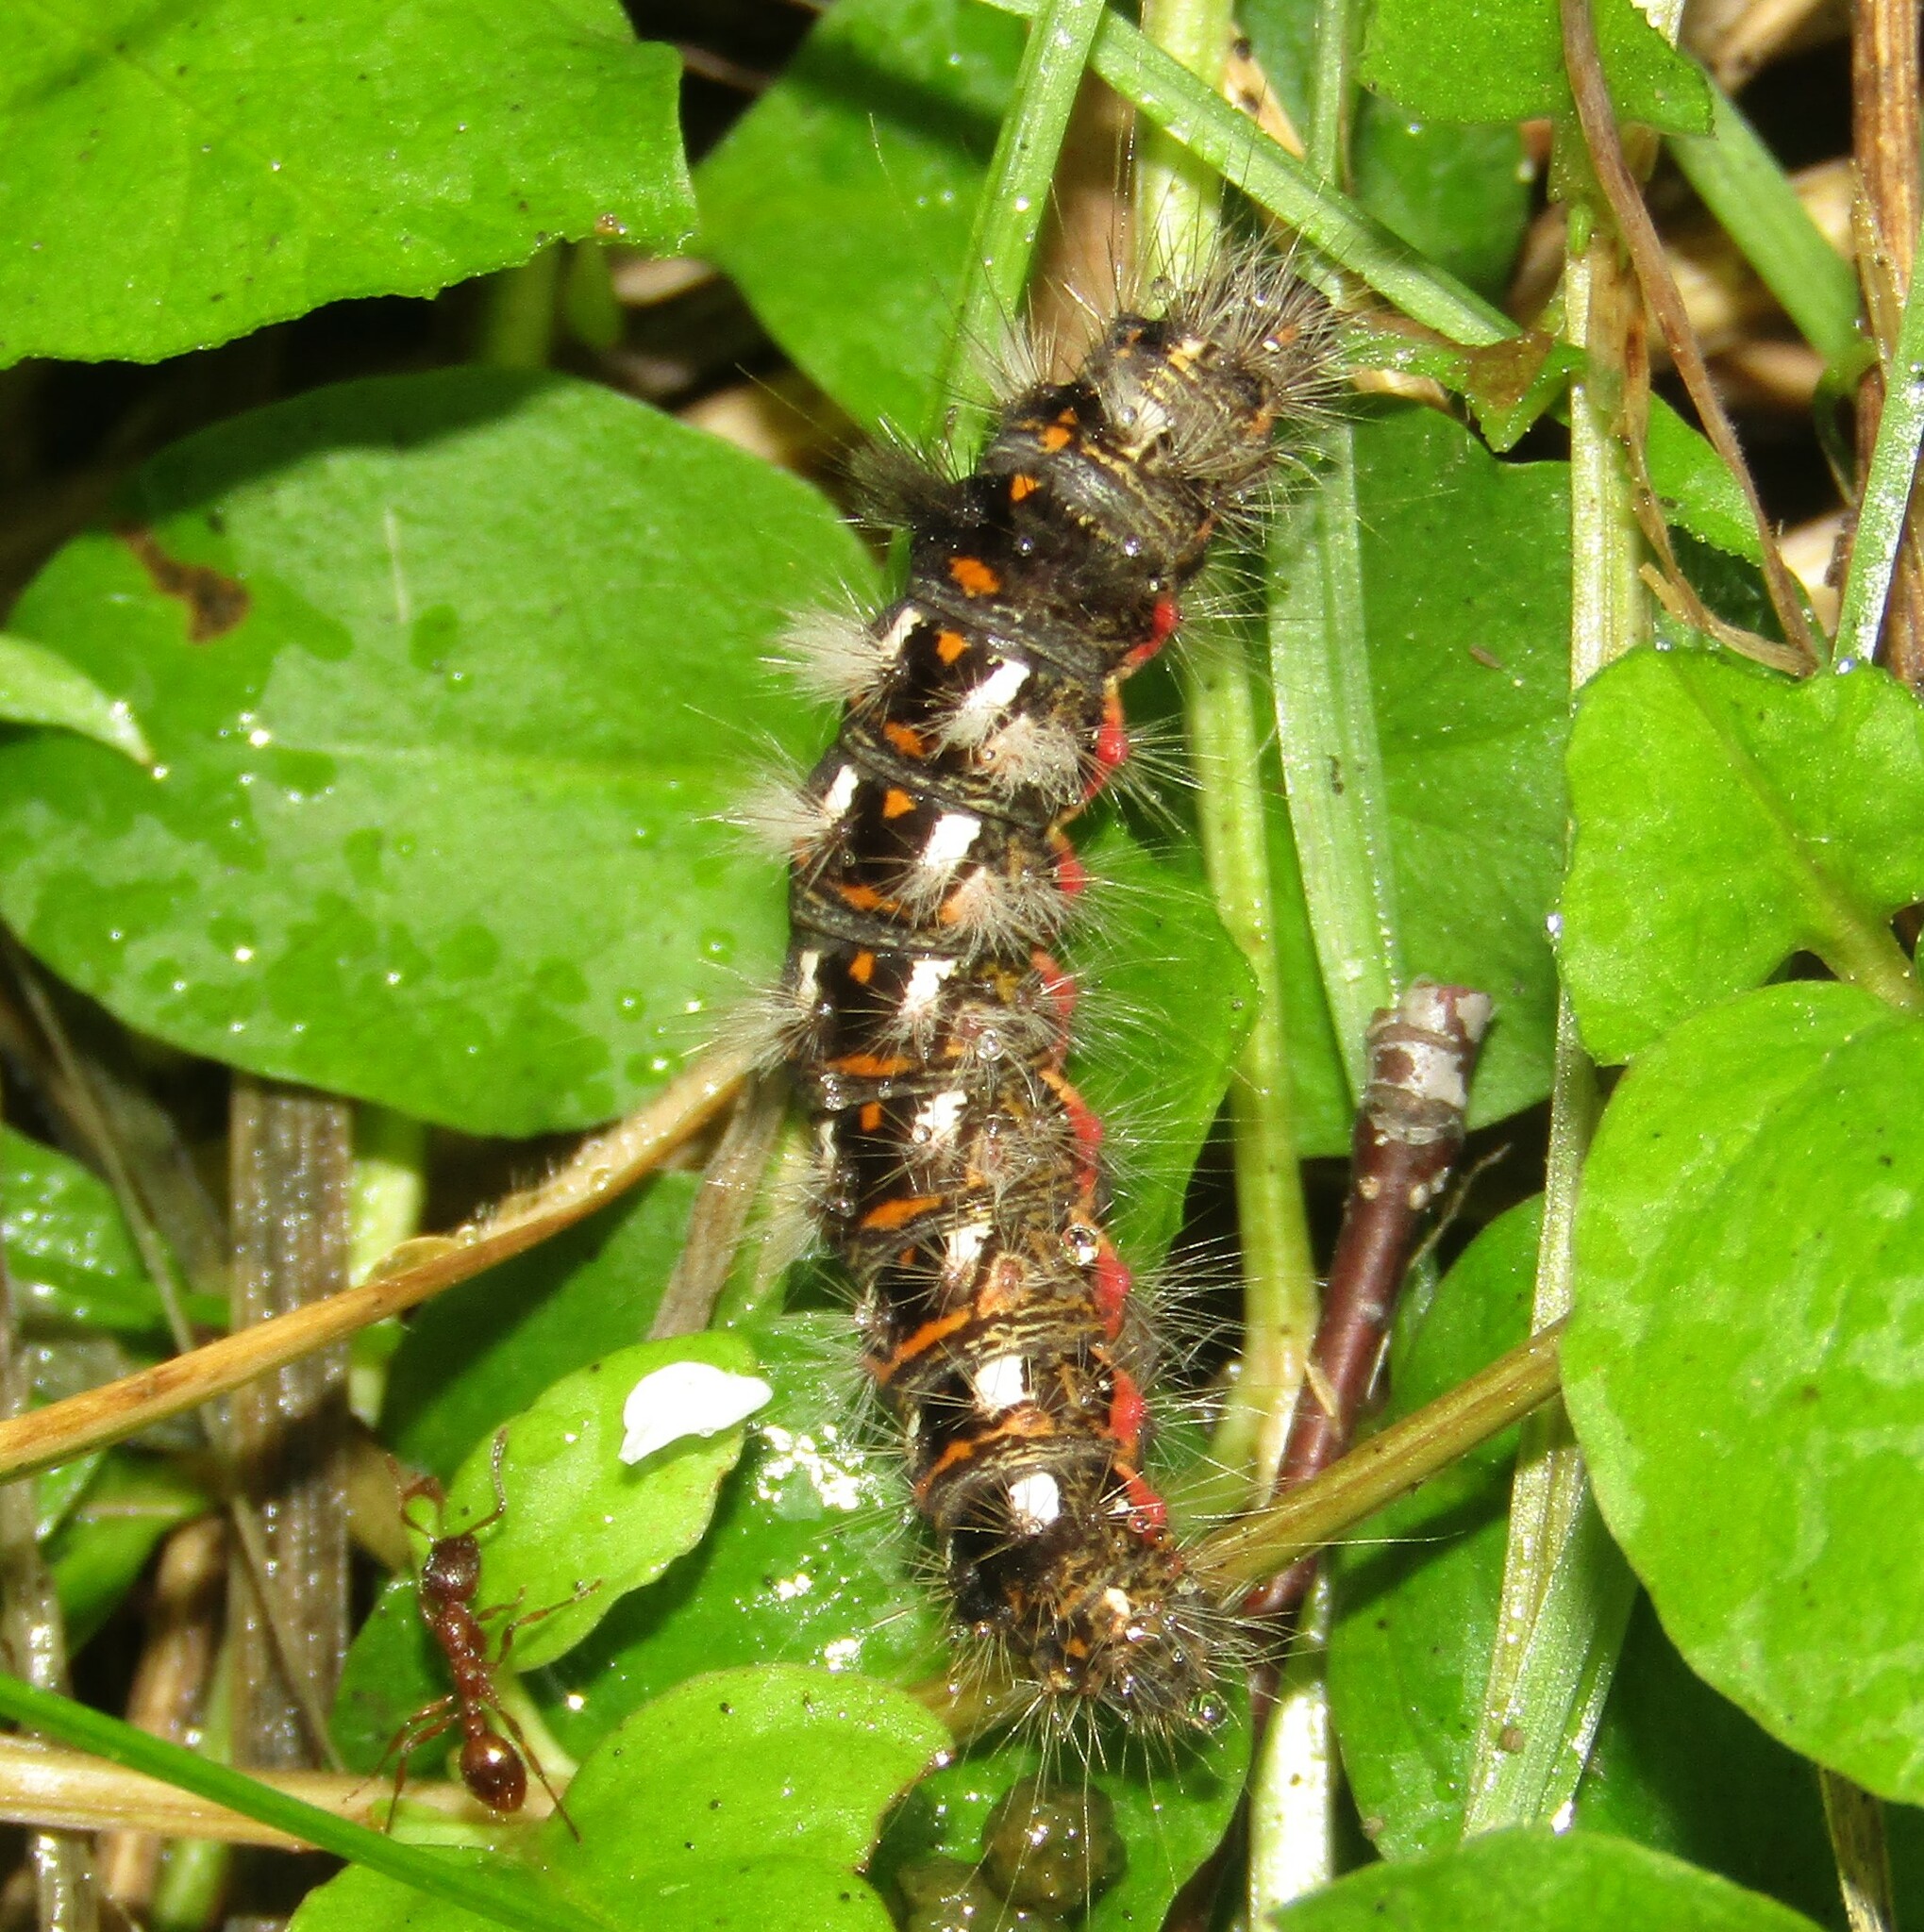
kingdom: Animalia
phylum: Arthropoda
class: Insecta
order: Lepidoptera
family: Noctuidae
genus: Acronicta
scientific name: Acronicta rumicis
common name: Knot grass
